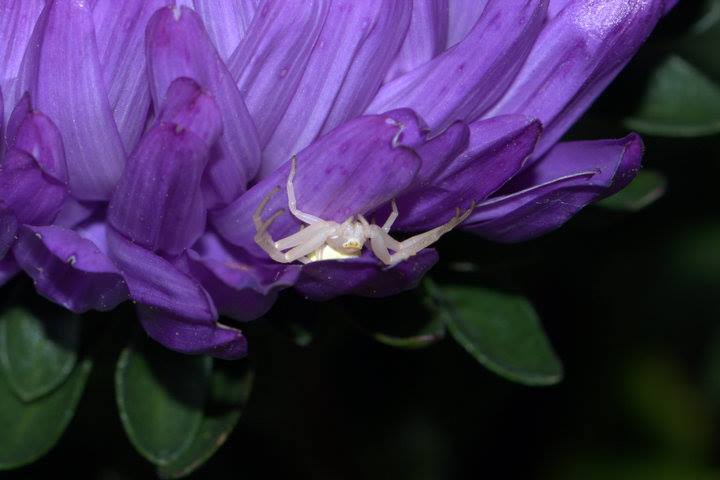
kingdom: Animalia
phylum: Arthropoda
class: Arachnida
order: Araneae
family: Thomisidae
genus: Misumena
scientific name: Misumena vatia
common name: Goldenrod crab spider
